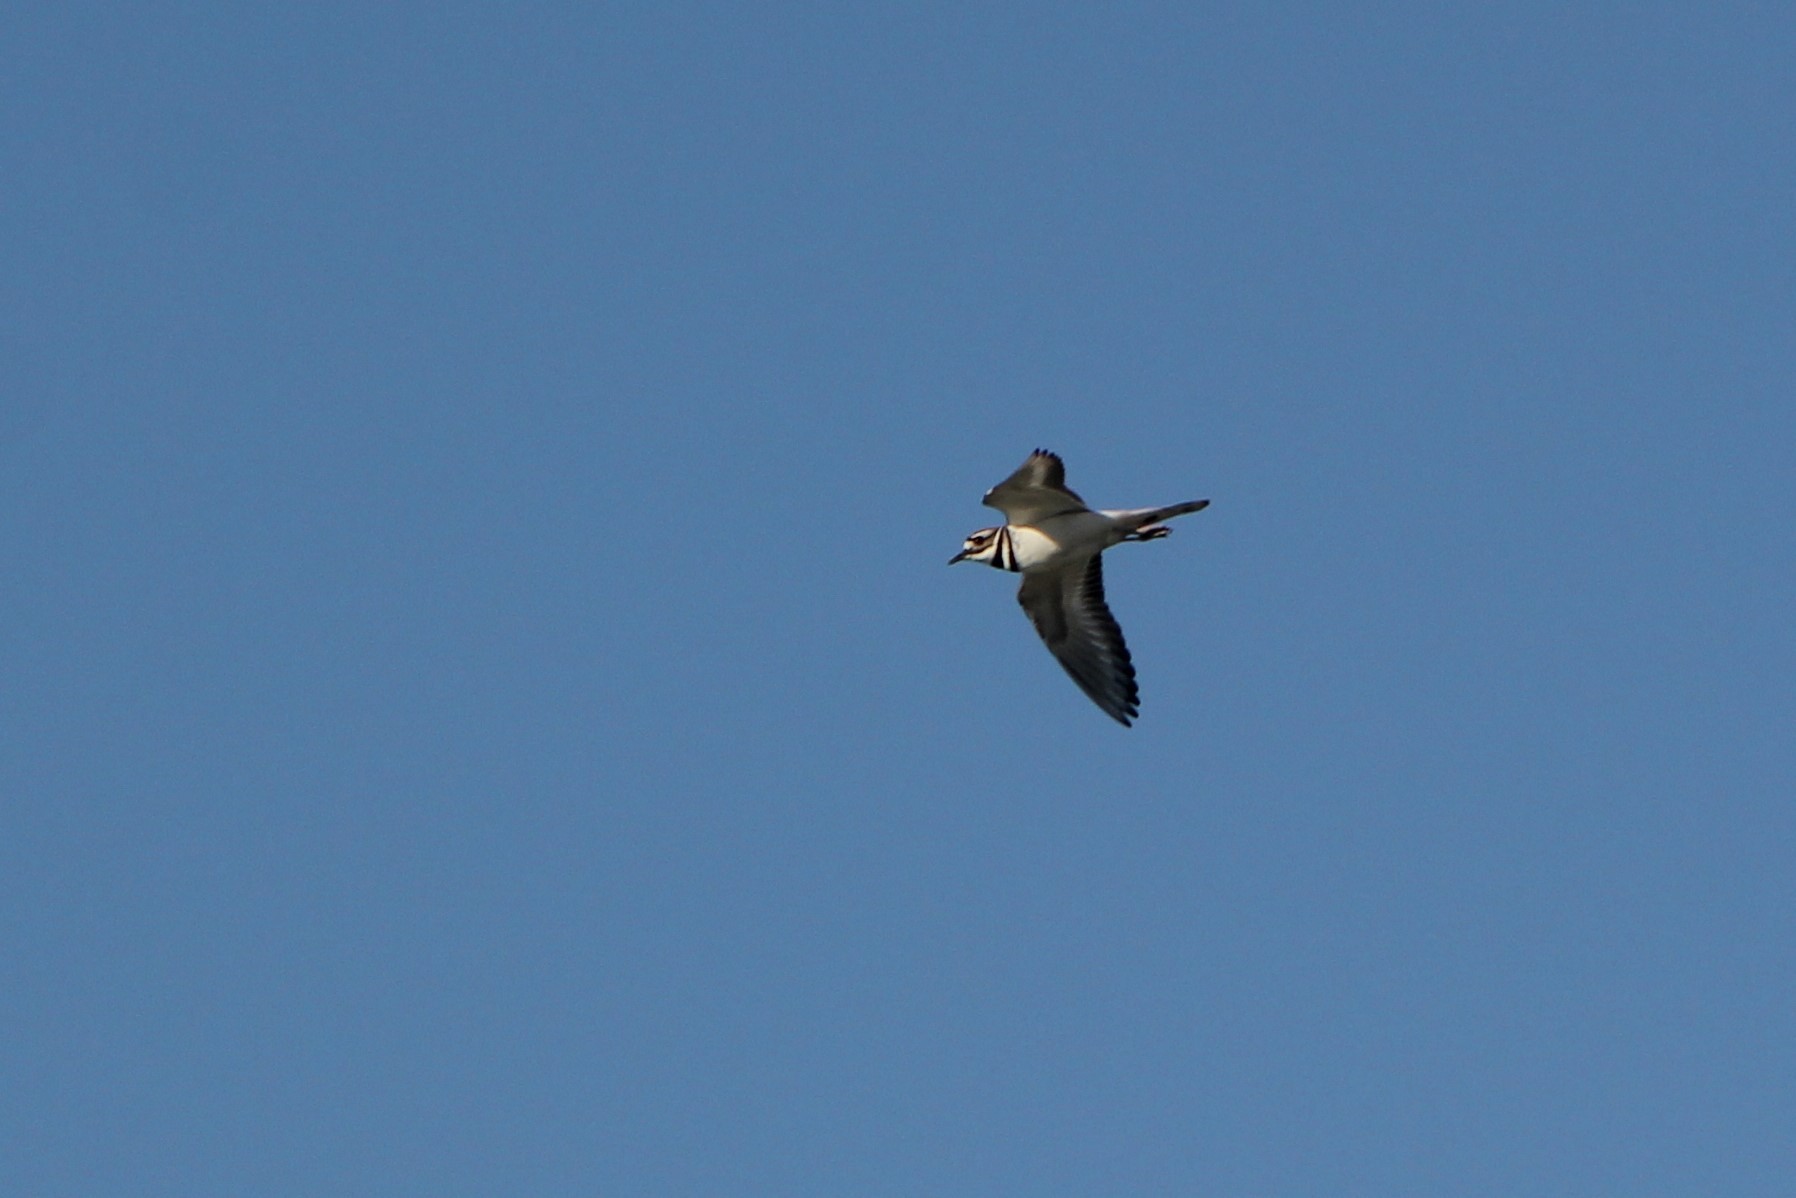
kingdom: Animalia
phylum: Chordata
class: Aves
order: Charadriiformes
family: Charadriidae
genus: Charadrius
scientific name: Charadrius vociferus
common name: Killdeer
